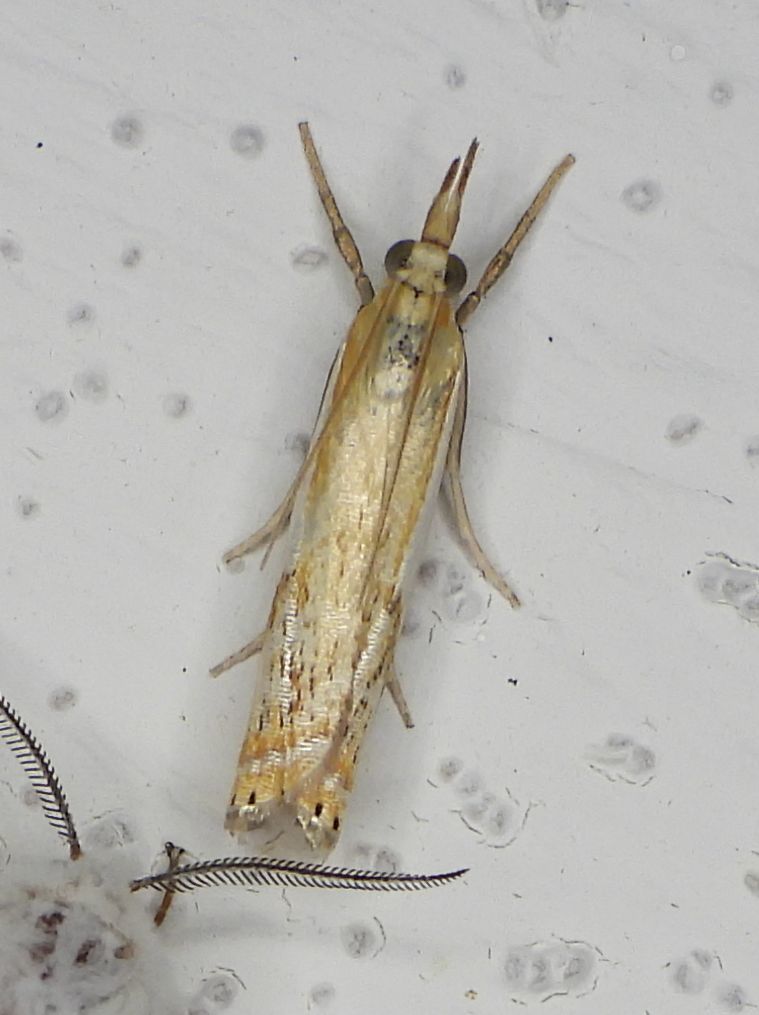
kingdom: Animalia
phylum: Arthropoda
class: Insecta
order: Lepidoptera
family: Crambidae
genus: Crambus
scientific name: Crambus agitatellus
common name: Double-banded grass-veneer
